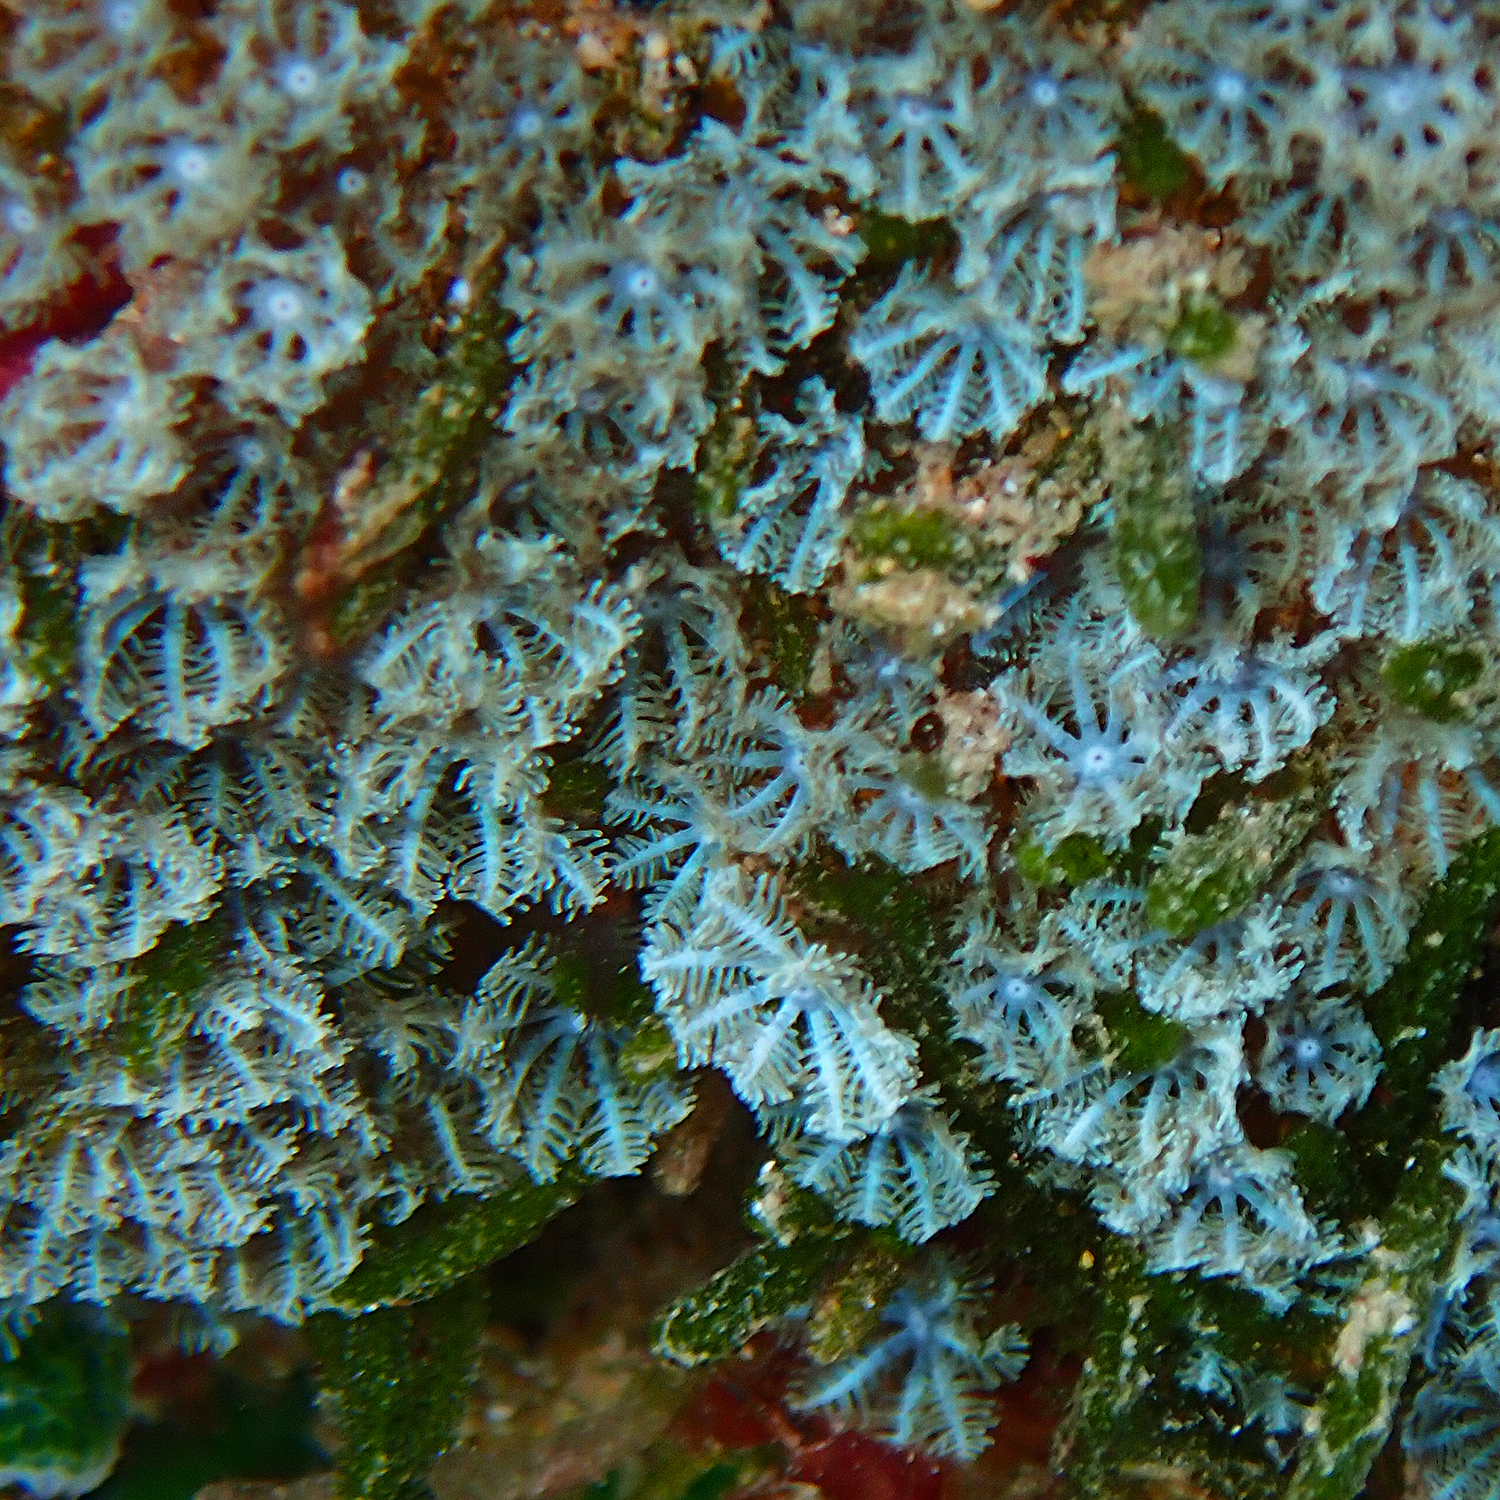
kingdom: Animalia
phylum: Cnidaria
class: Anthozoa
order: Malacalcyonacea
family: Xeniidae
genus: Sarcothelia
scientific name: Sarcothelia edmondsoni
